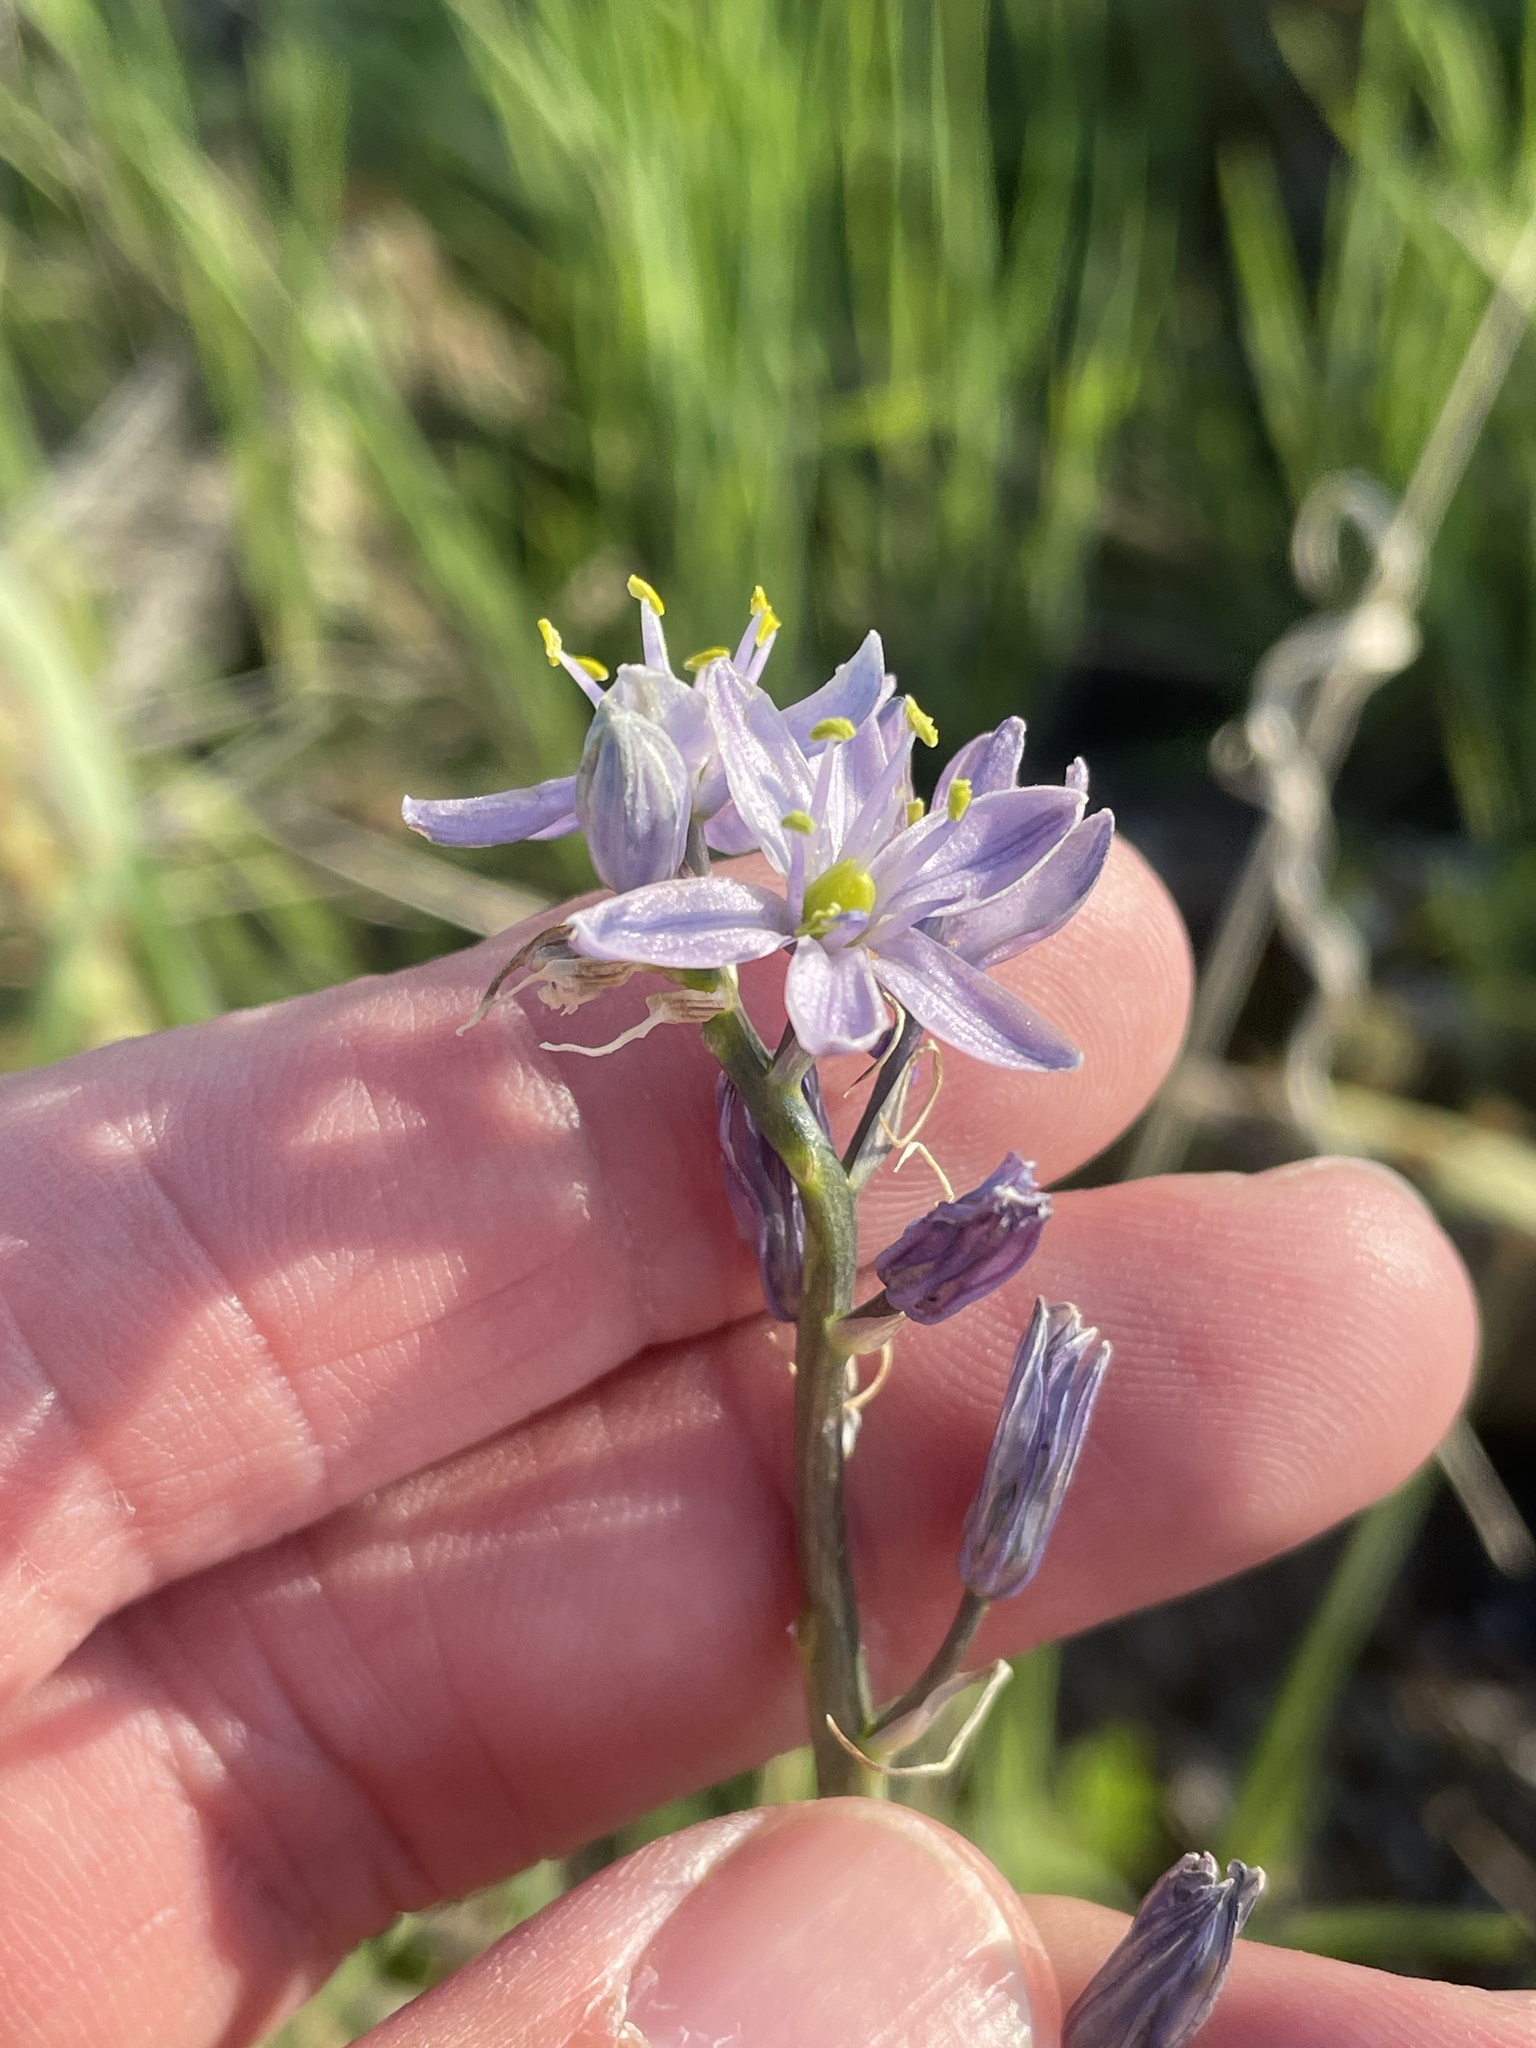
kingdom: Plantae
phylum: Tracheophyta
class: Liliopsida
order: Asparagales
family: Asparagaceae
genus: Camassia
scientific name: Camassia scilloides
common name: Wild hyacinth
